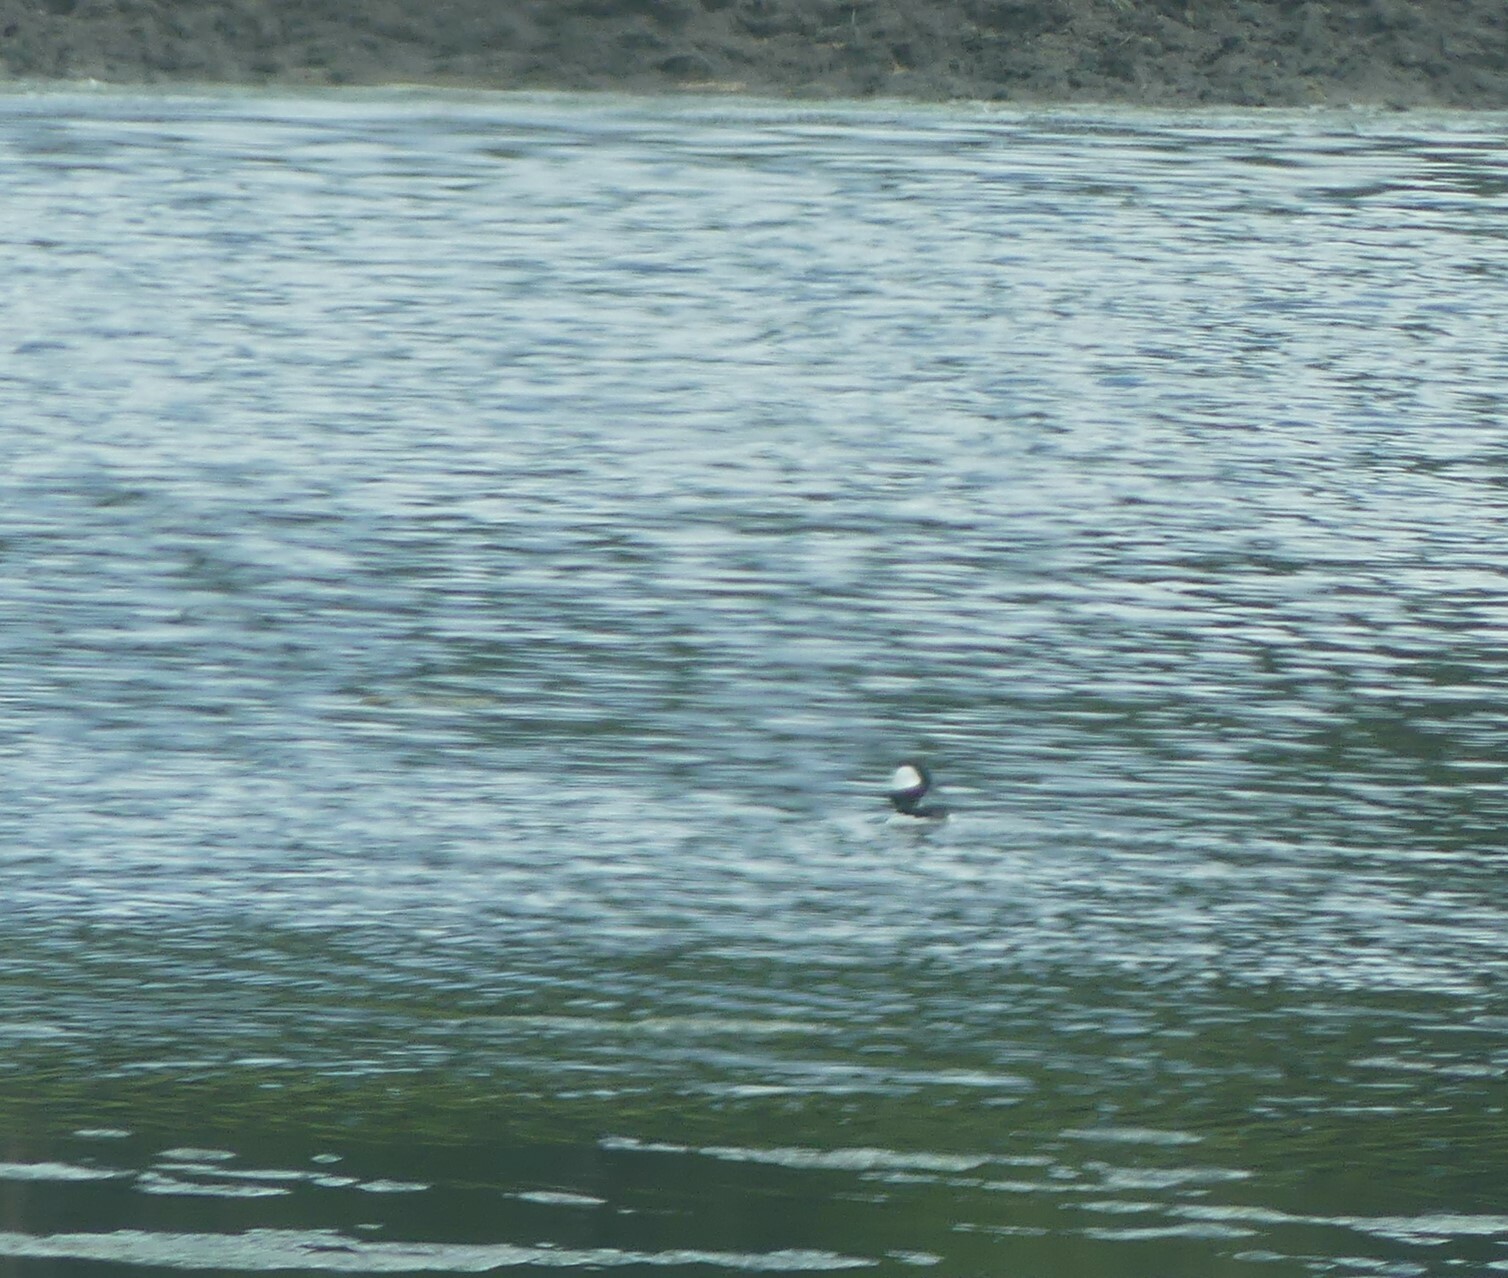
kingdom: Animalia
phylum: Chordata
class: Aves
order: Anseriformes
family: Anatidae
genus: Bucephala
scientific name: Bucephala albeola
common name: Bufflehead
